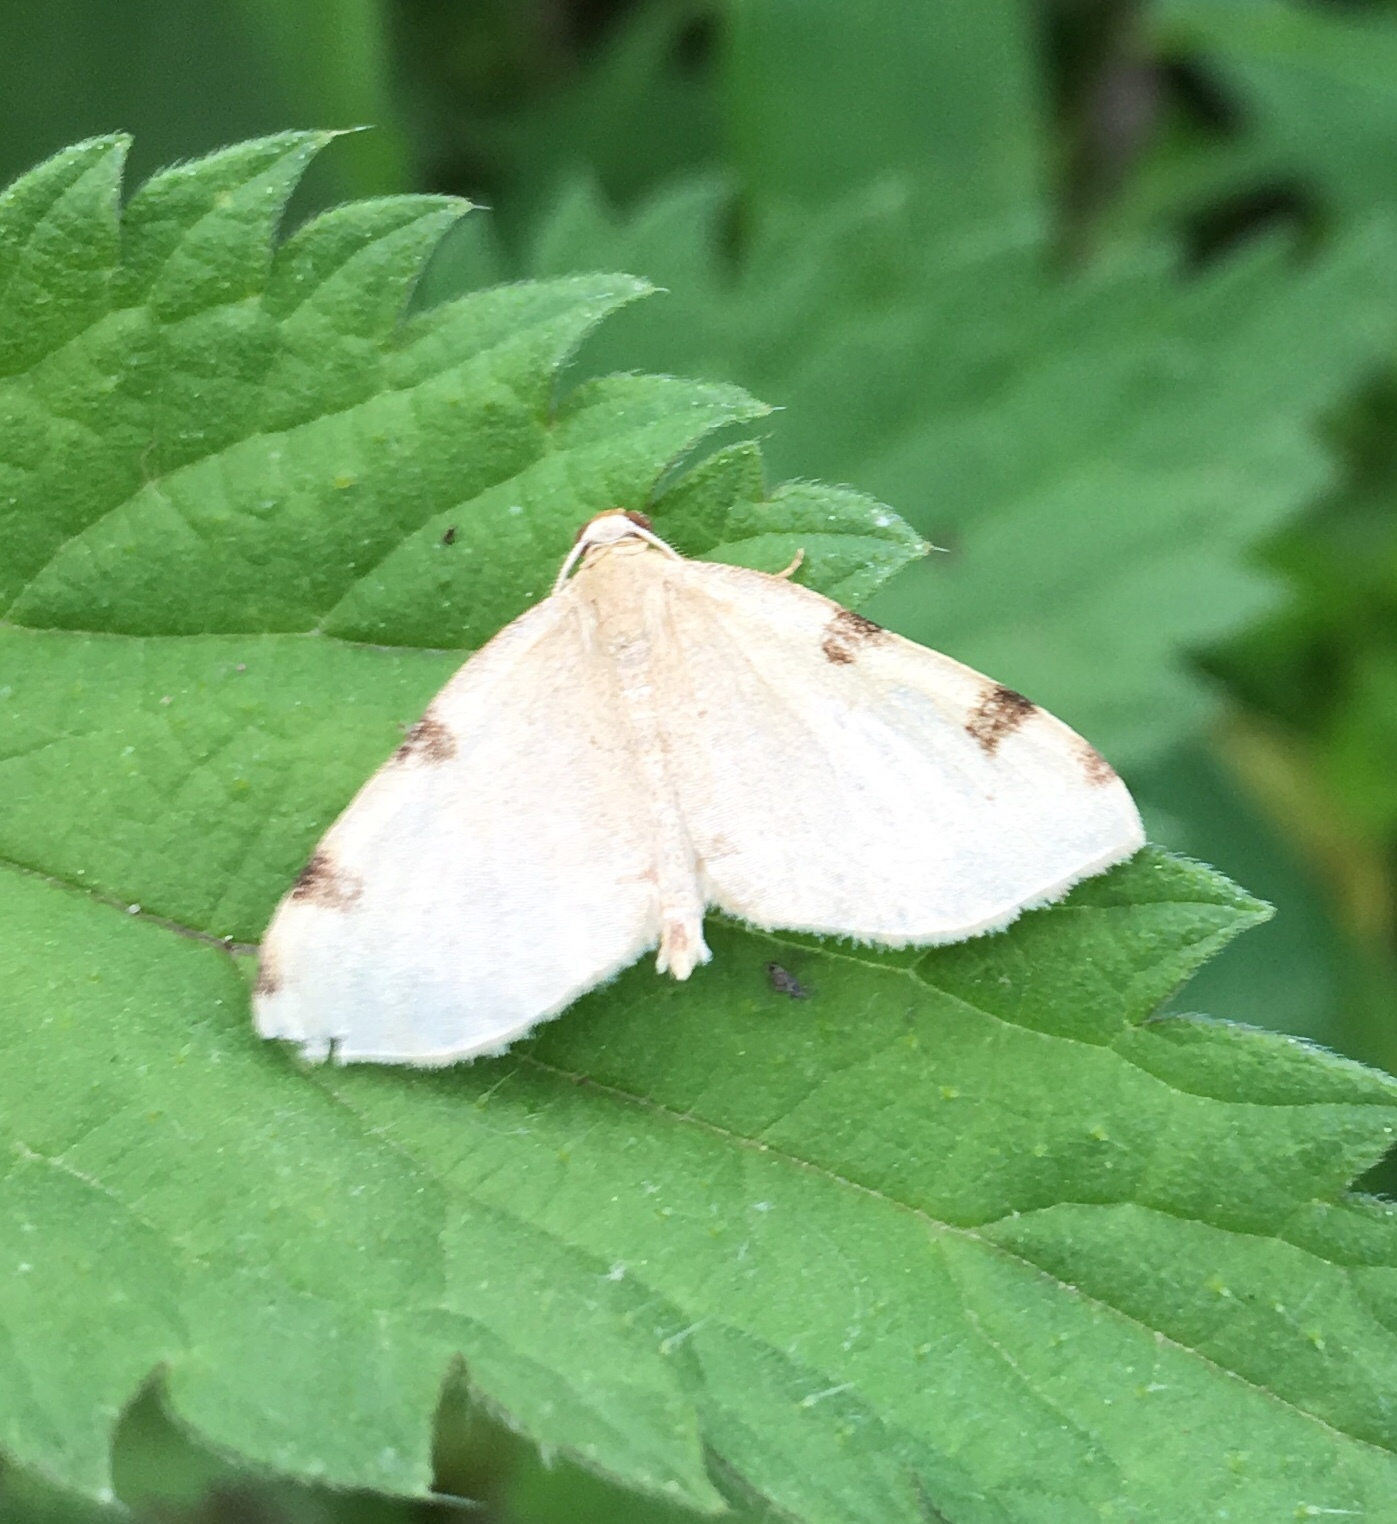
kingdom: Animalia
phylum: Arthropoda
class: Insecta
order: Lepidoptera
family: Geometridae
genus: Heterophleps
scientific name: Heterophleps triguttaria
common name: Three-spotted fillip
